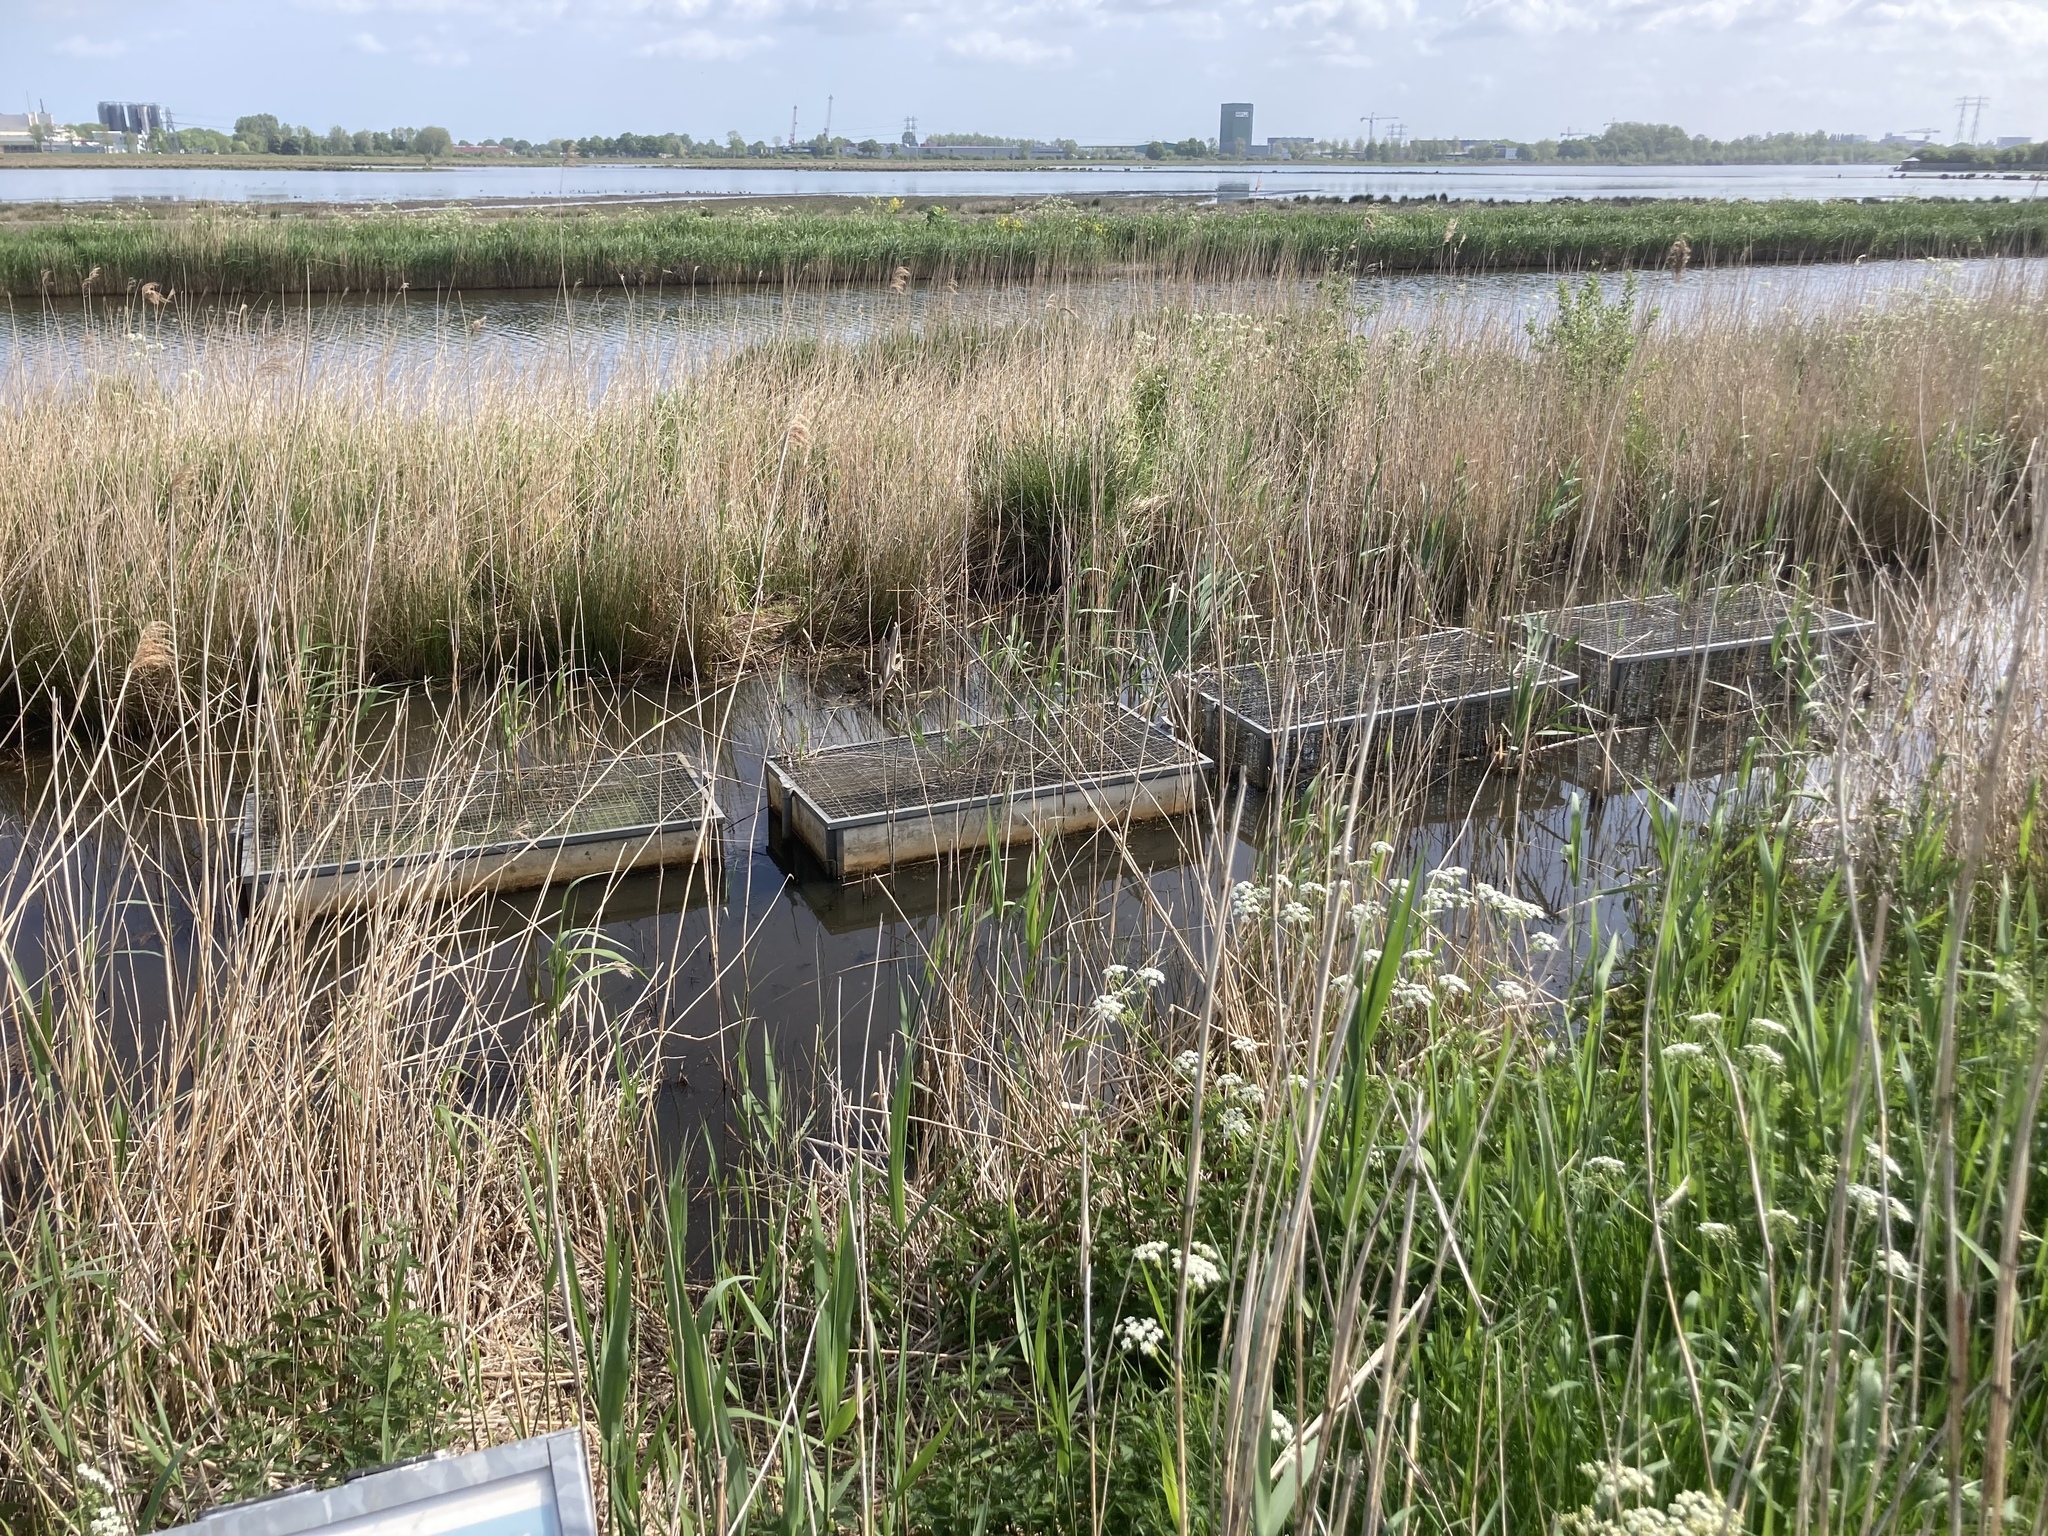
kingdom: Plantae
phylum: Tracheophyta
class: Liliopsida
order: Poales
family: Poaceae
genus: Phragmites
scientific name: Phragmites australis
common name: Common reed
